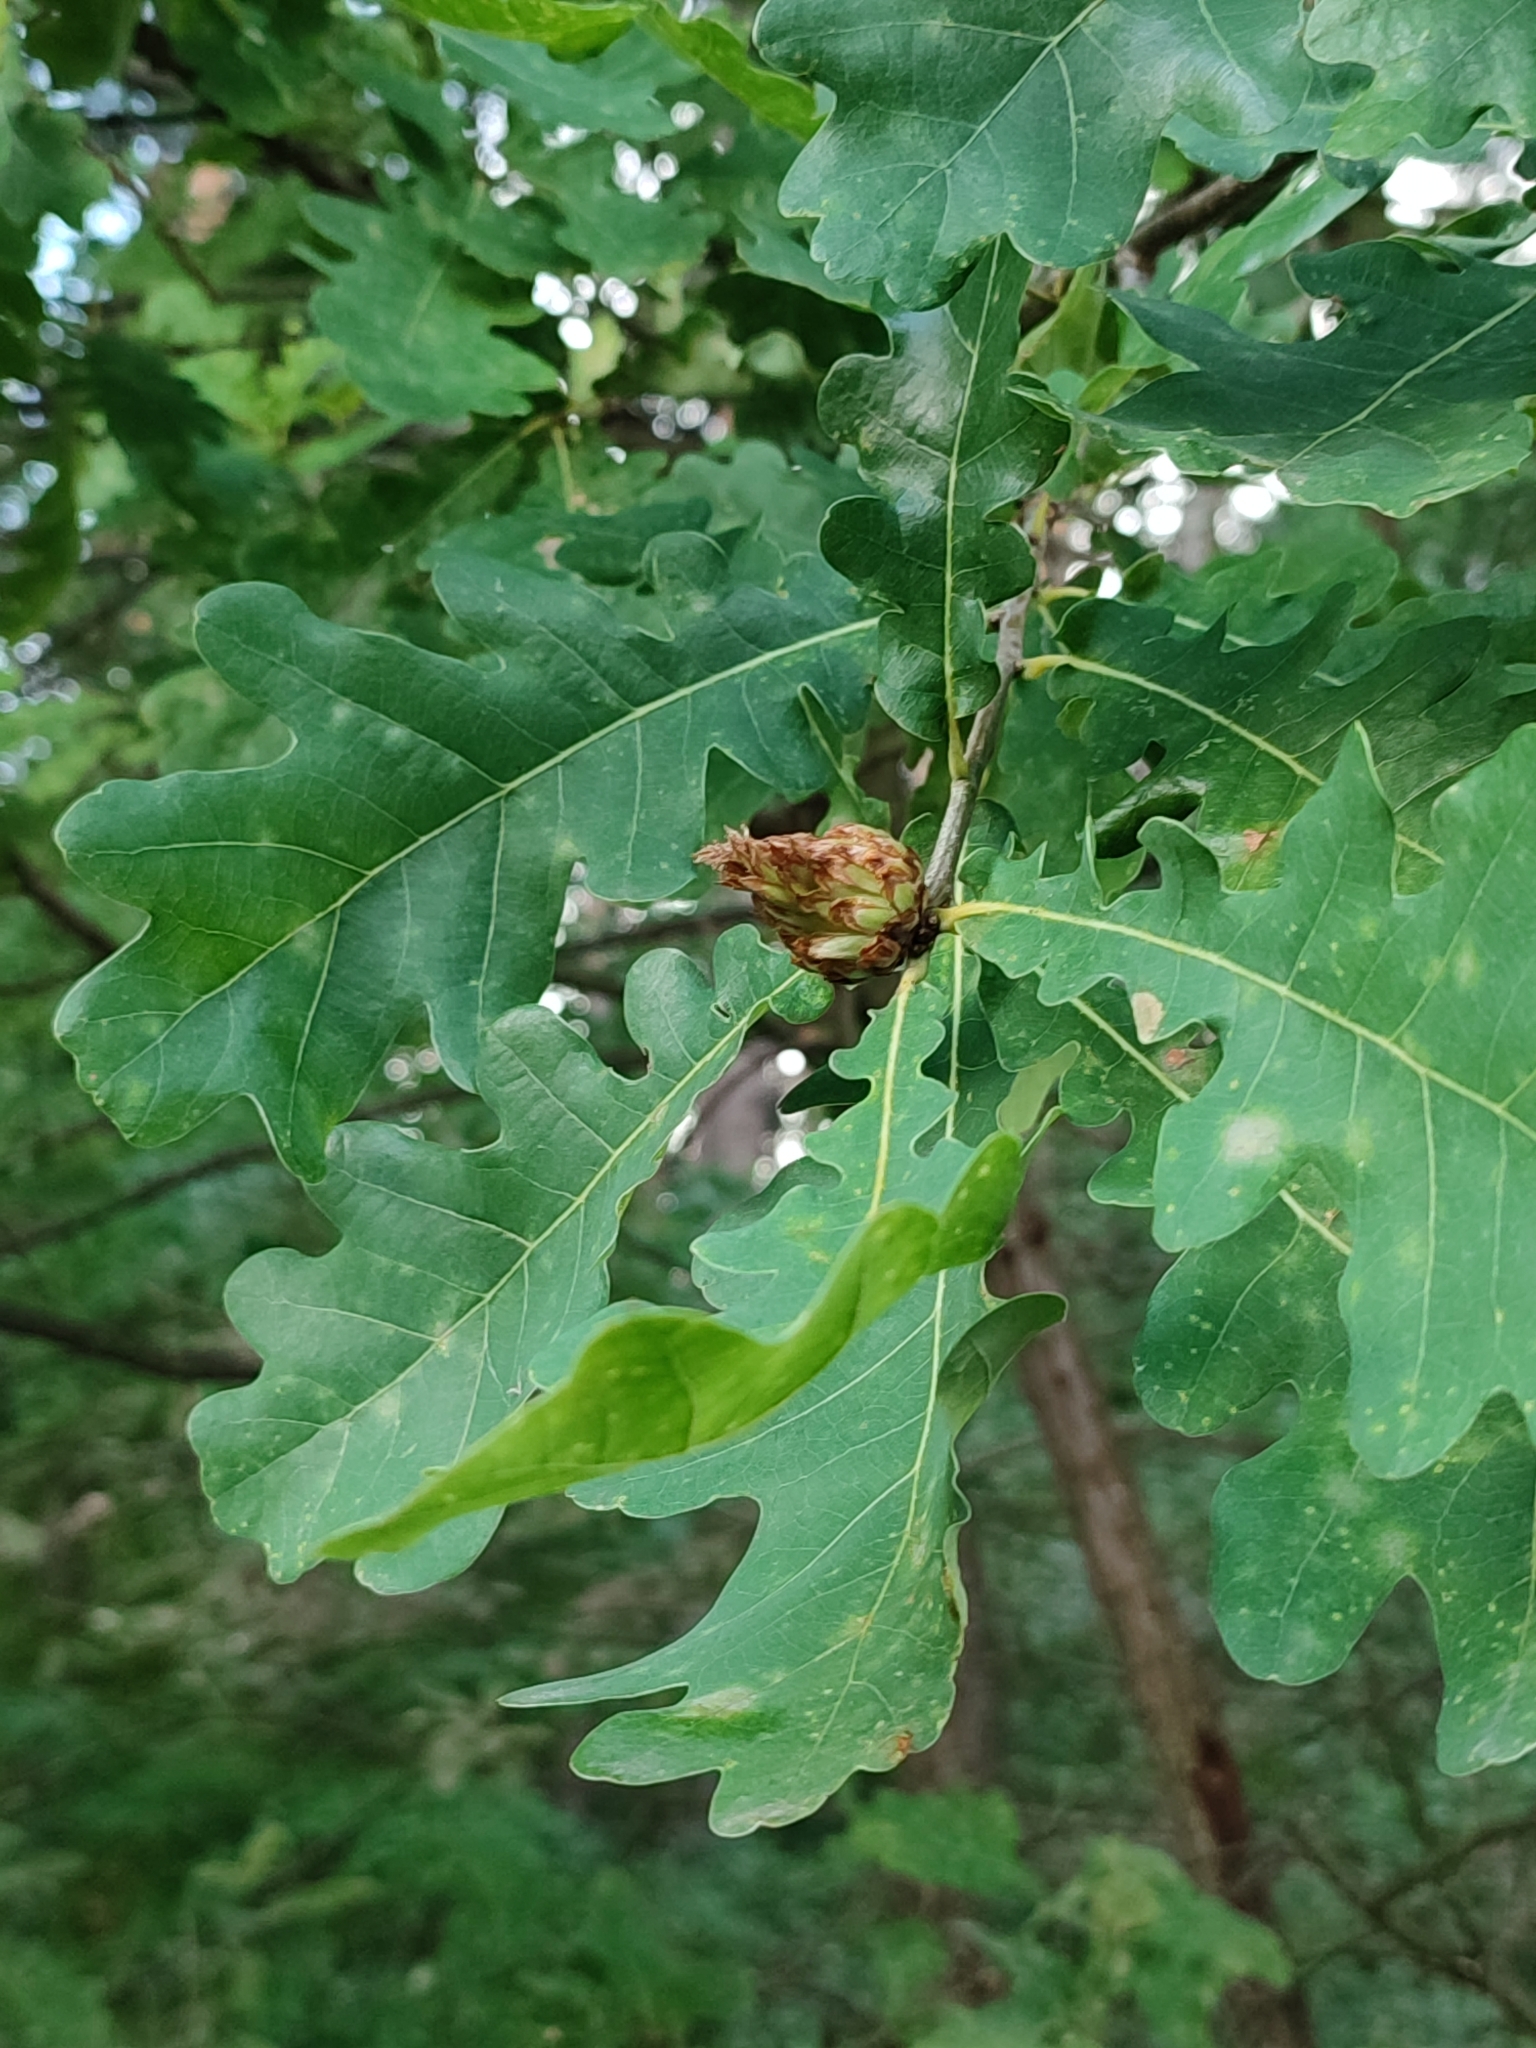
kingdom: Animalia
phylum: Arthropoda
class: Insecta
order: Hymenoptera
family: Cynipidae
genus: Andricus
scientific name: Andricus foecundatrix
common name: Artichoke gall
